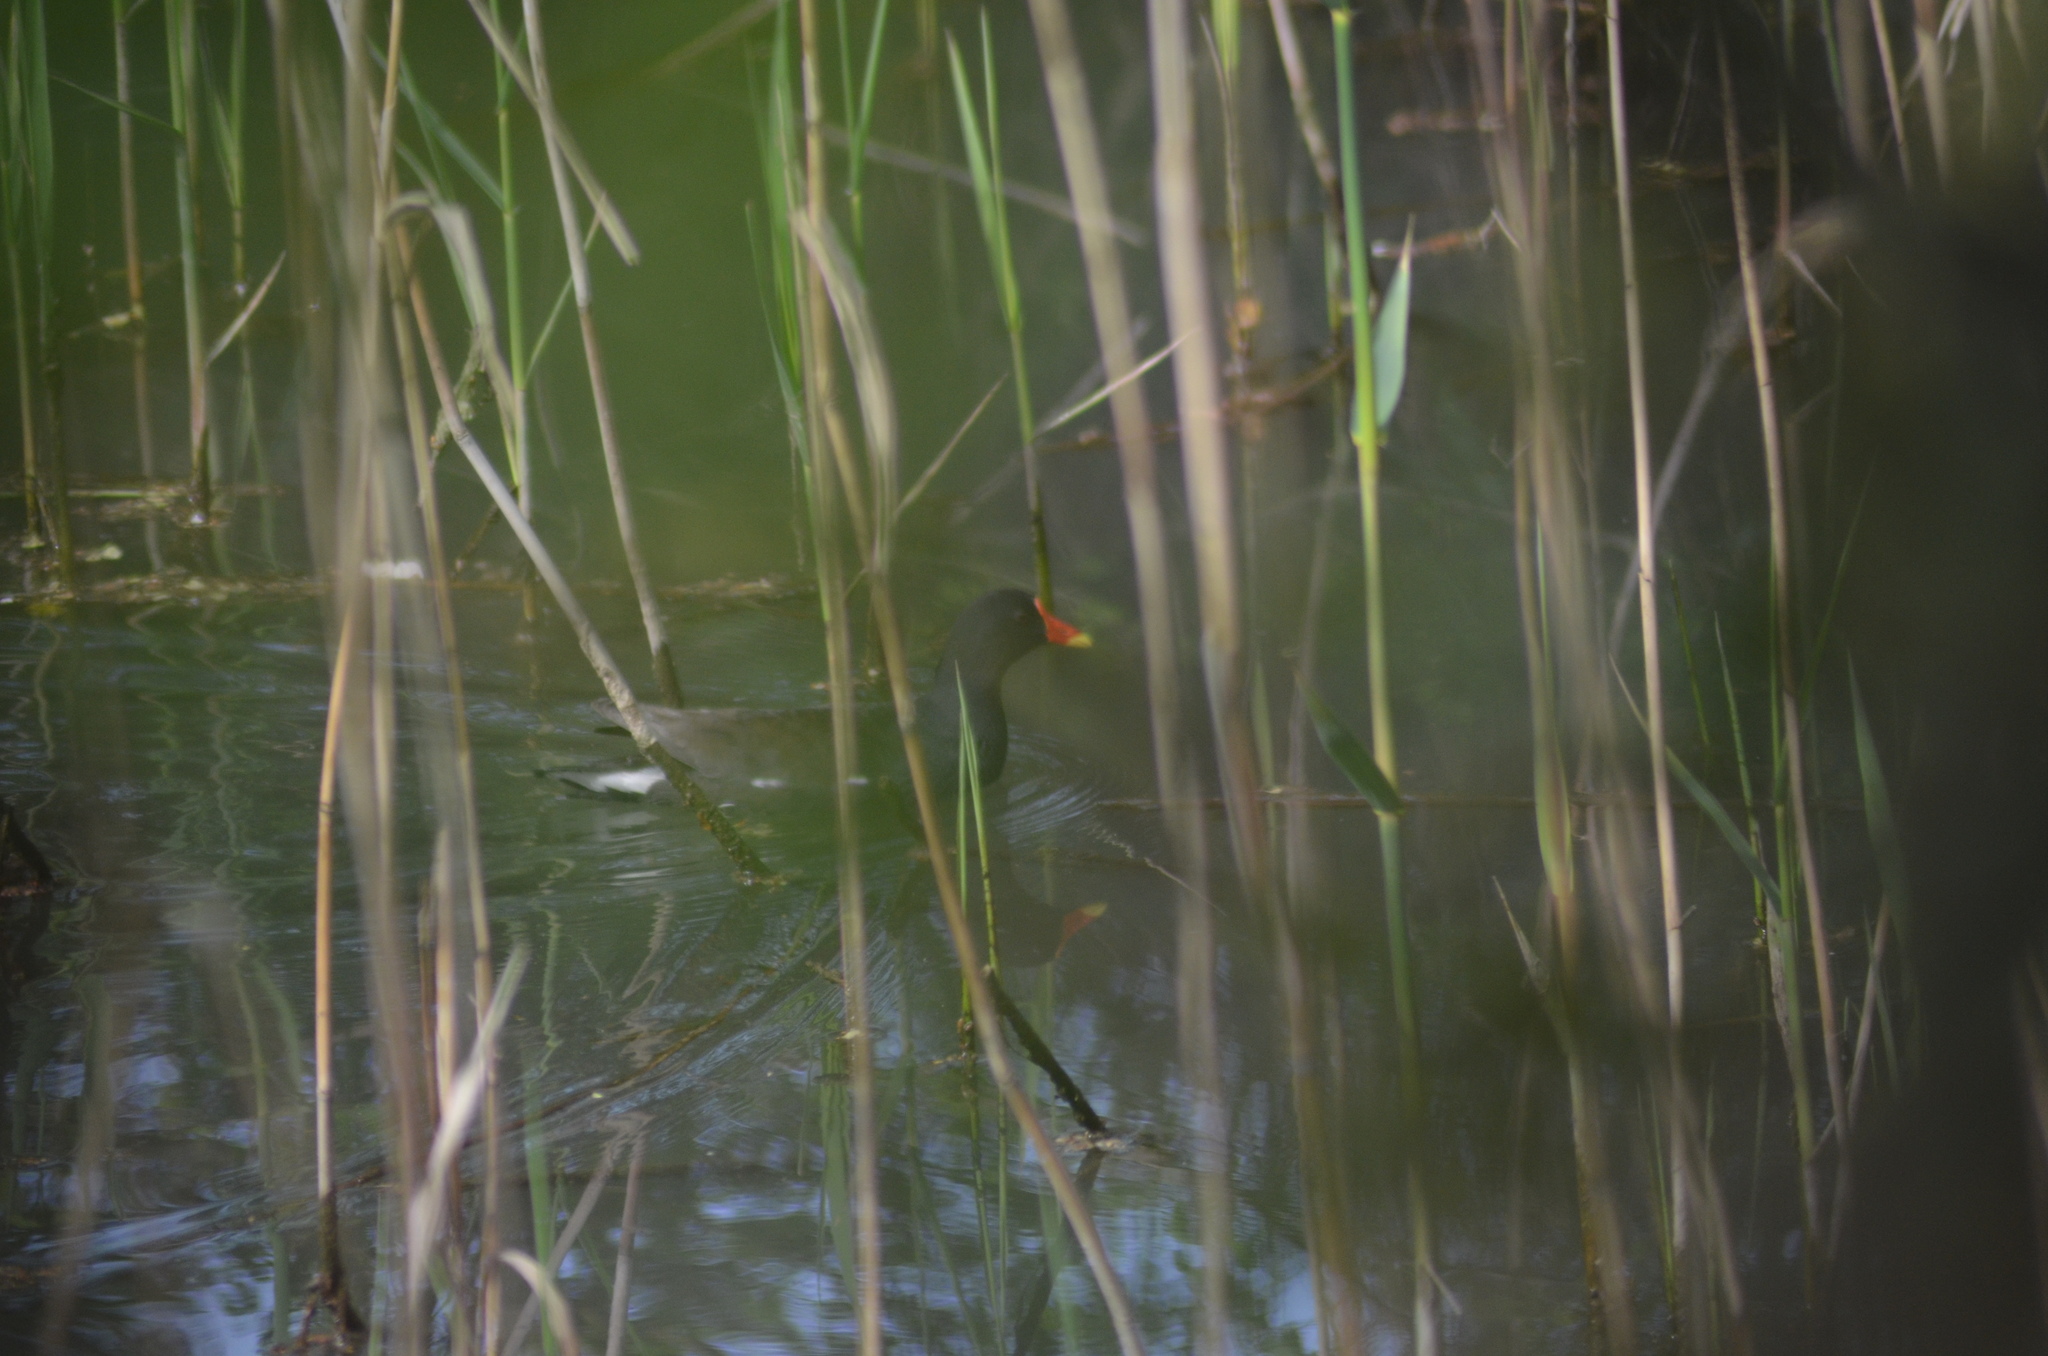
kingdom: Animalia
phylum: Chordata
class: Aves
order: Gruiformes
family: Rallidae
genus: Gallinula
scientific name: Gallinula chloropus
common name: Common moorhen
